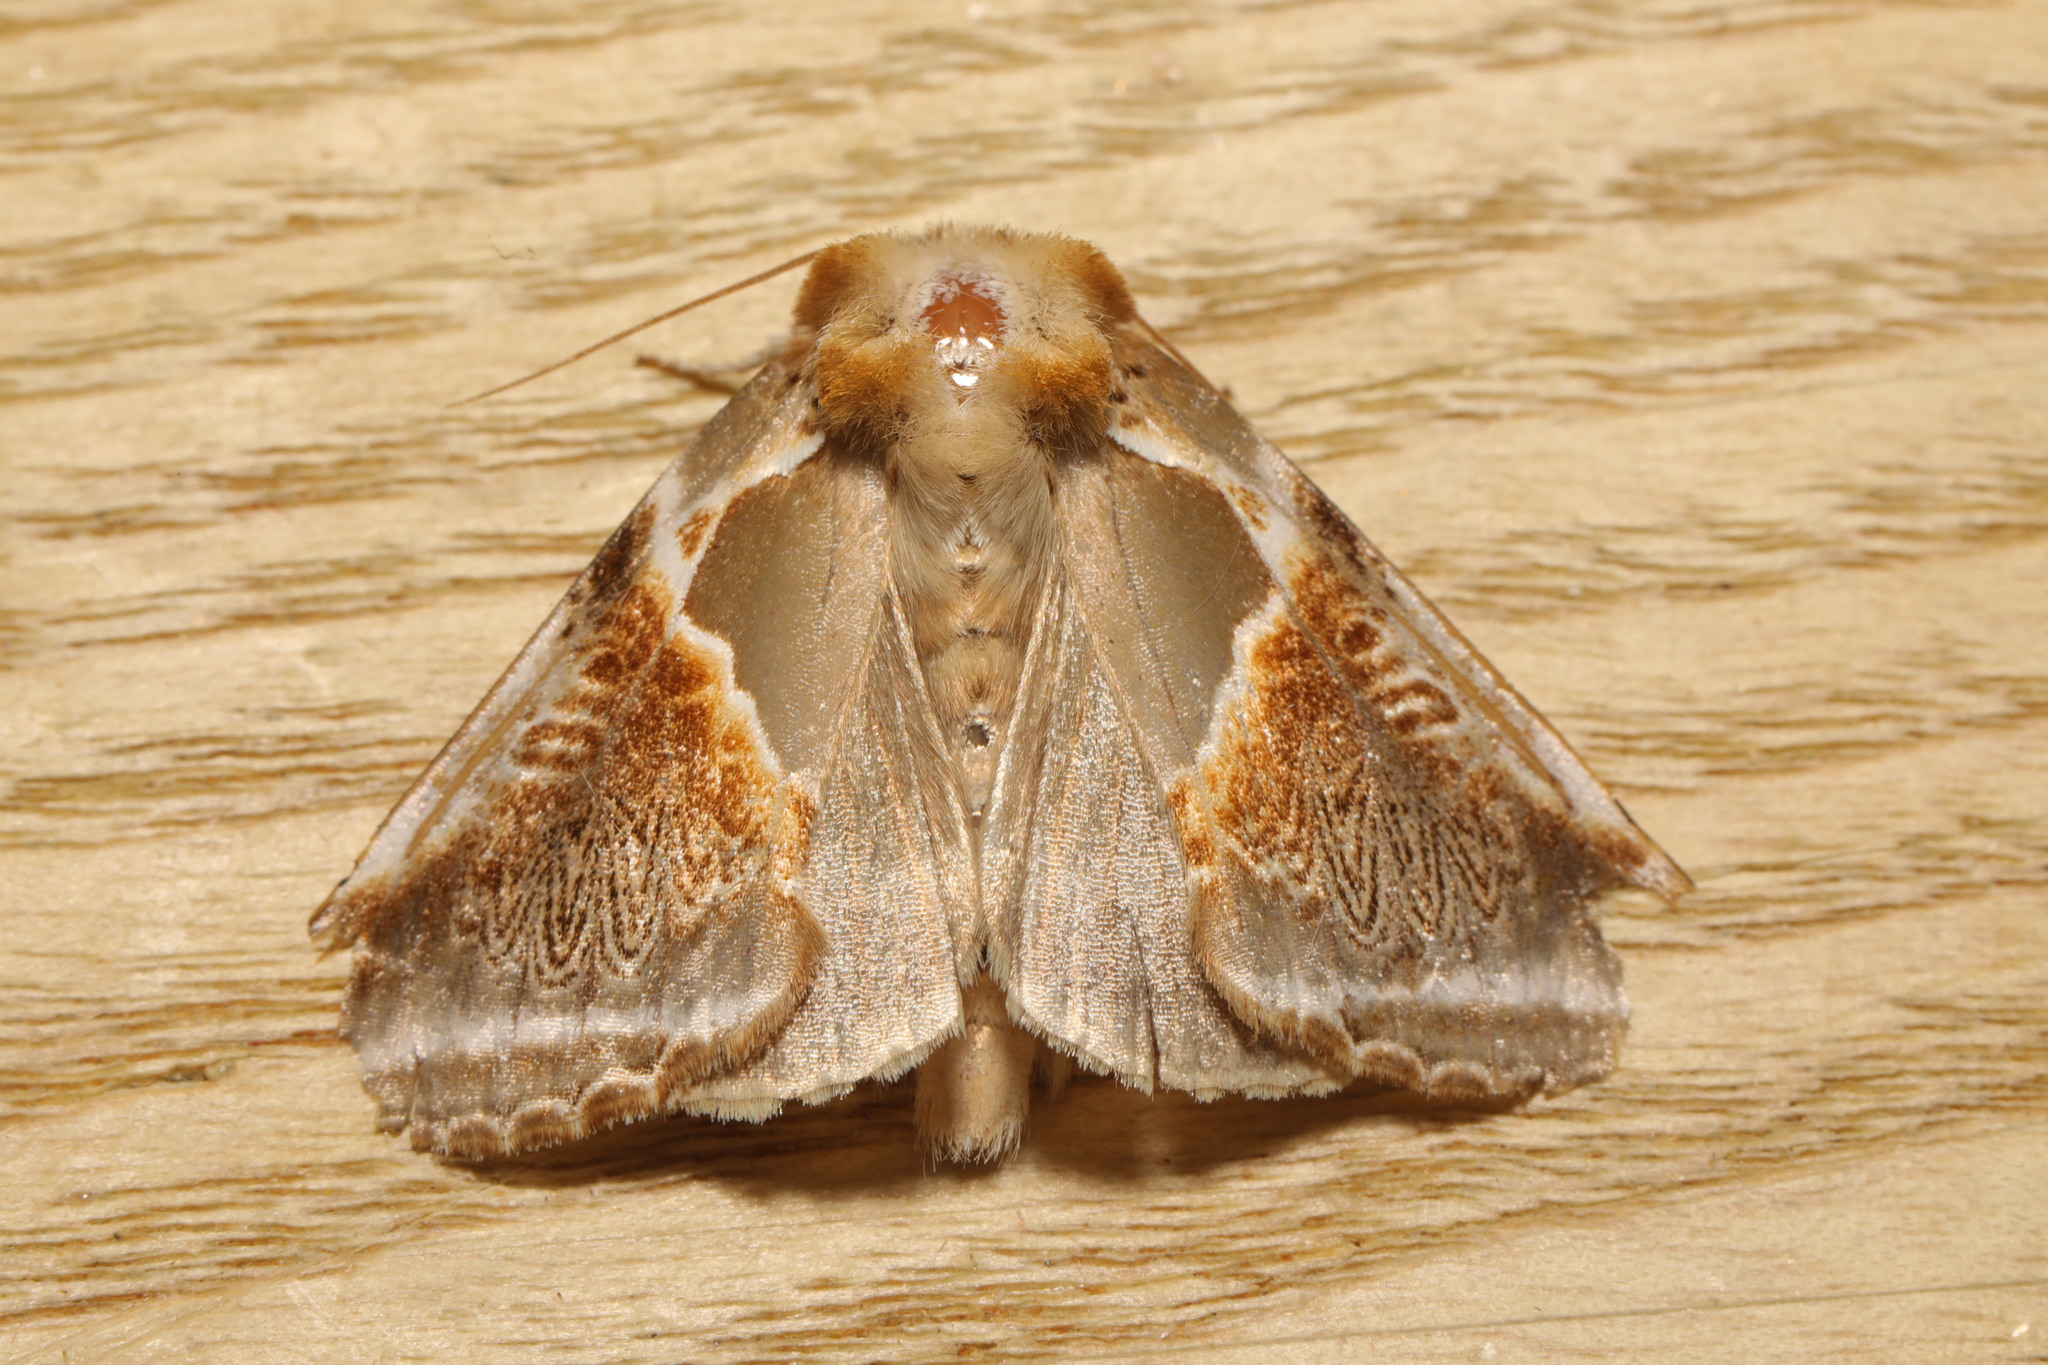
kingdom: Animalia
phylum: Arthropoda
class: Insecta
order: Lepidoptera
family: Drepanidae
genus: Habrosyne
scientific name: Habrosyne pyritoides
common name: Buff arches
